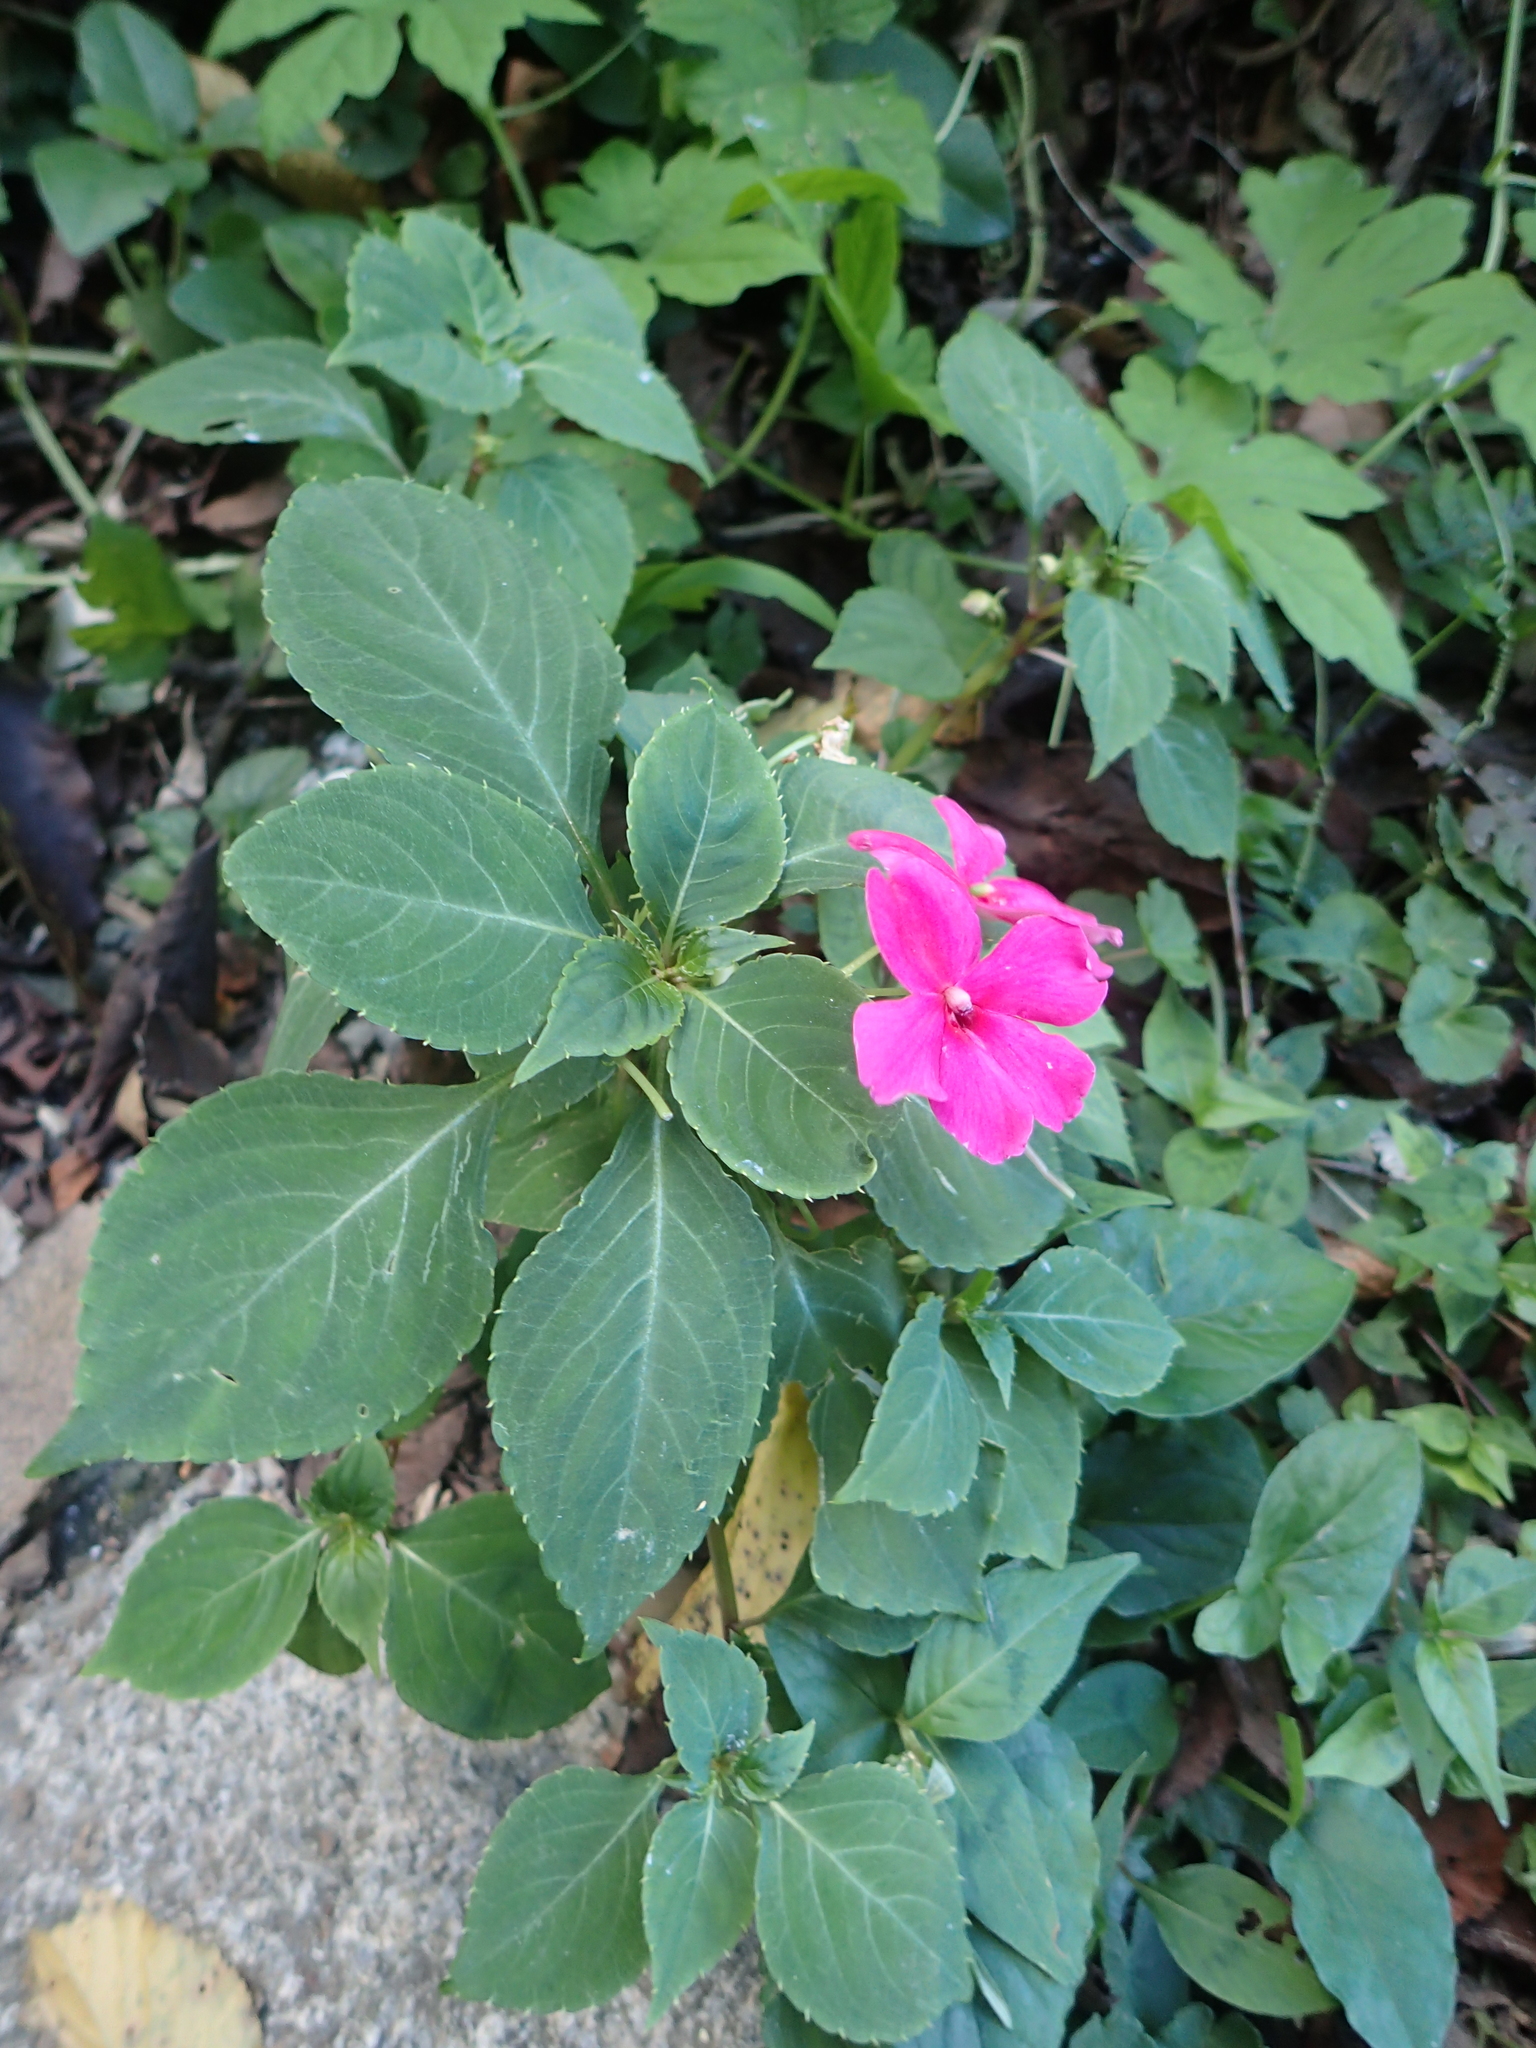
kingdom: Plantae
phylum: Tracheophyta
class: Magnoliopsida
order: Ericales
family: Balsaminaceae
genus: Impatiens
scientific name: Impatiens walleriana
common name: Buzzy lizzy
